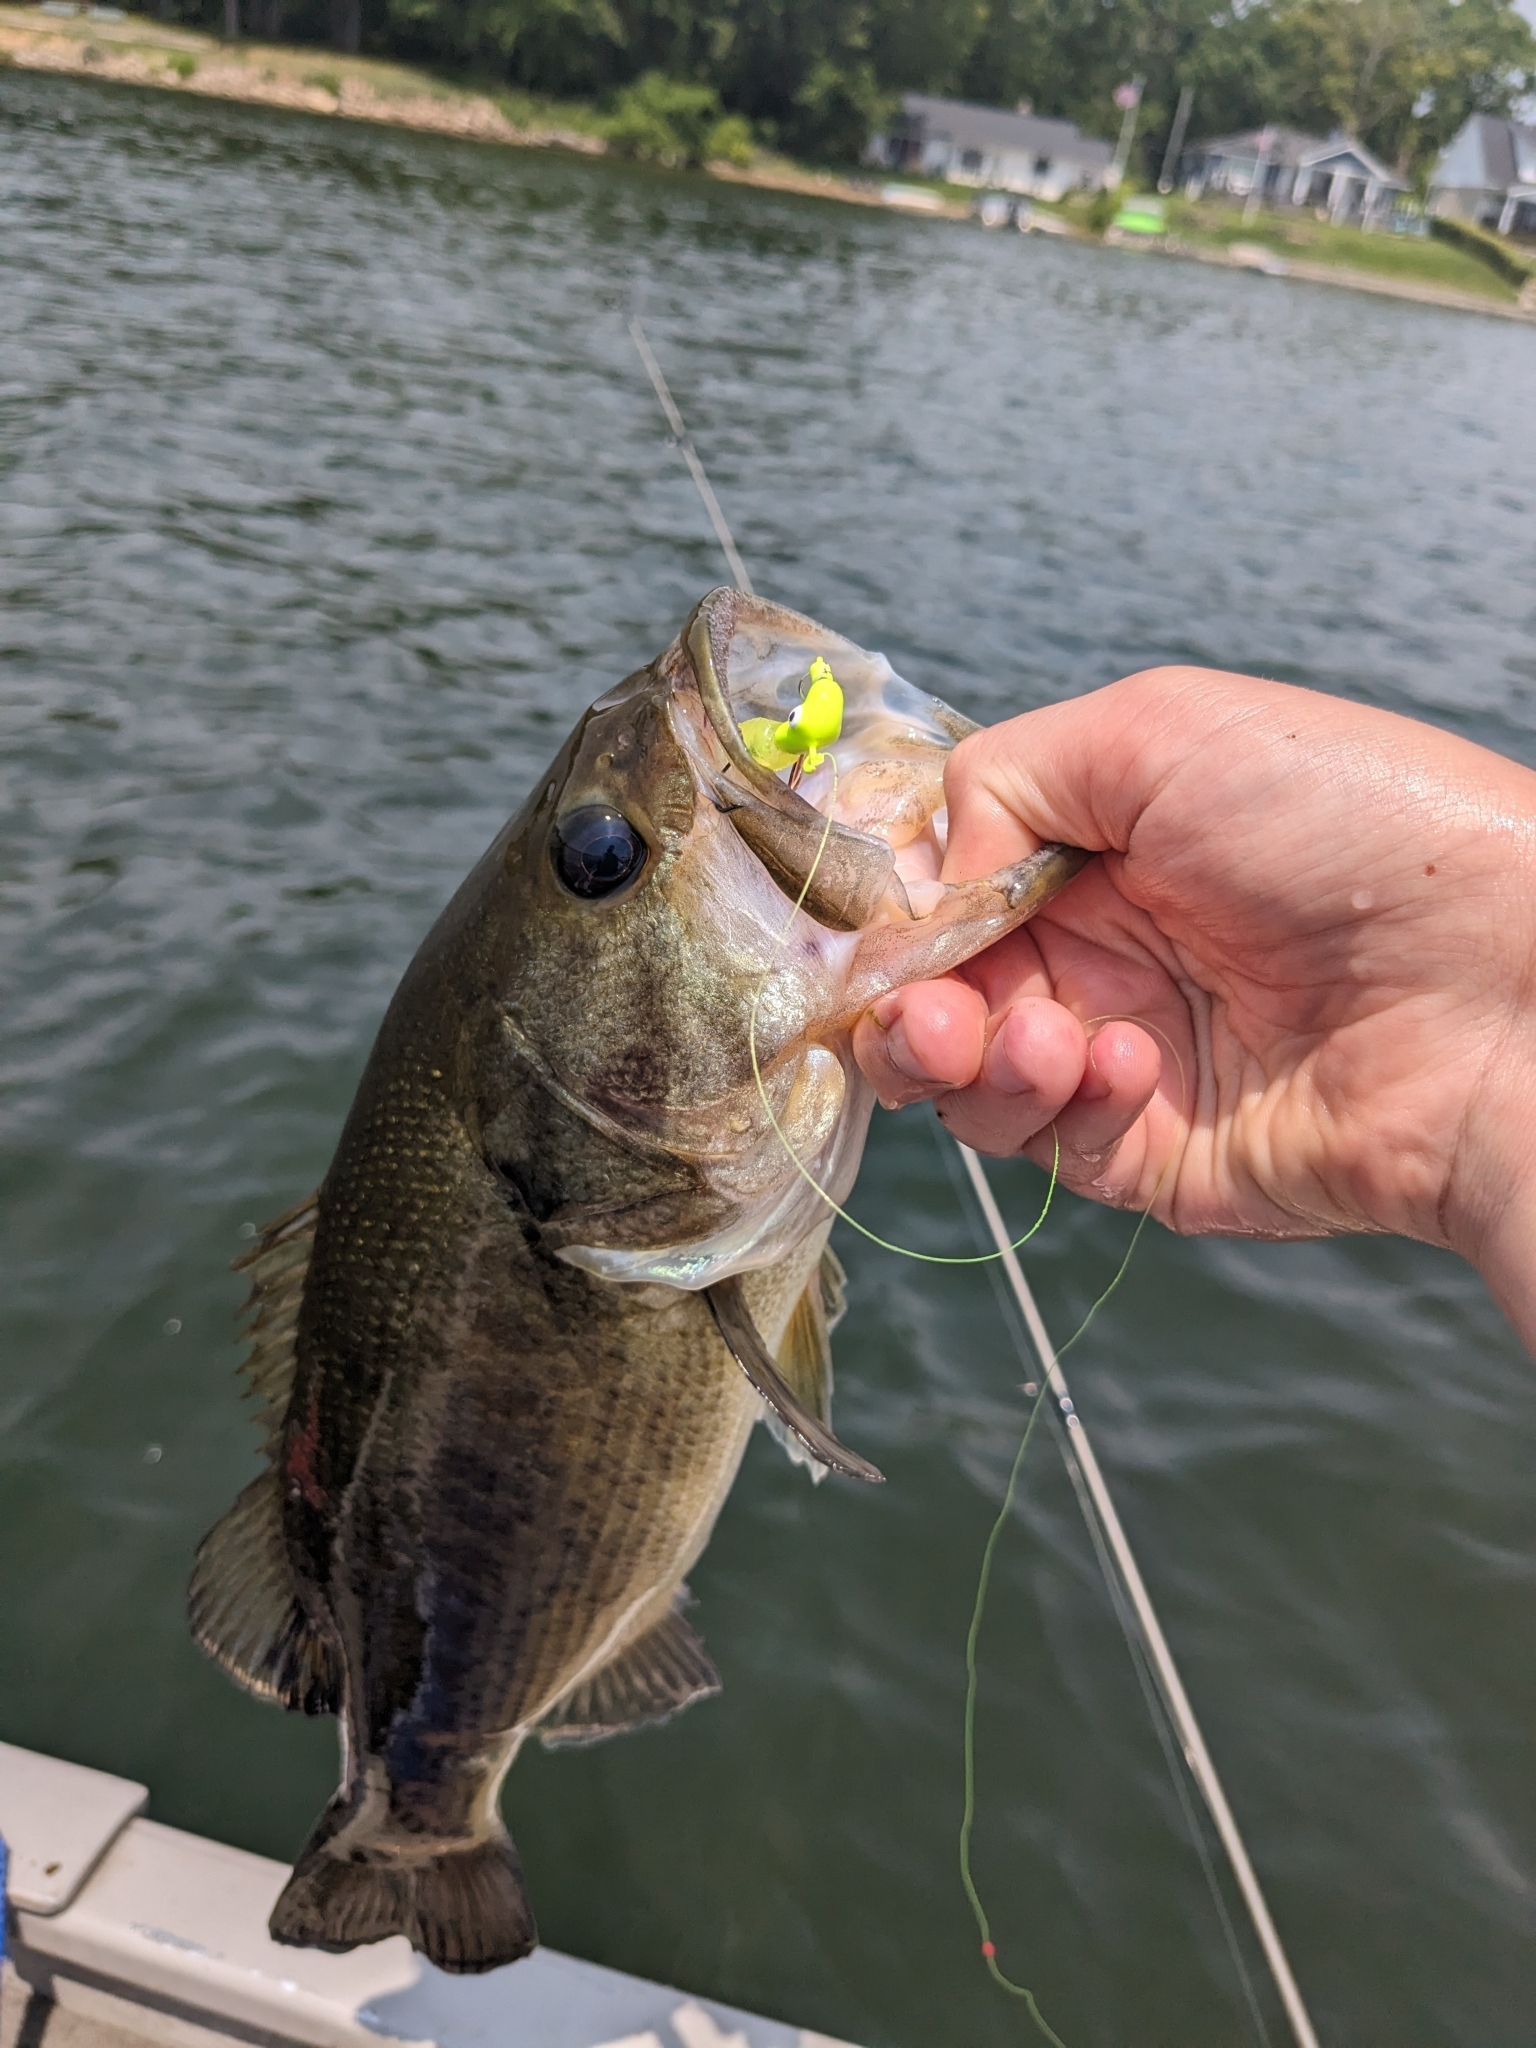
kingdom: Animalia
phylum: Chordata
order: Perciformes
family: Centrarchidae
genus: Micropterus
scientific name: Micropterus
